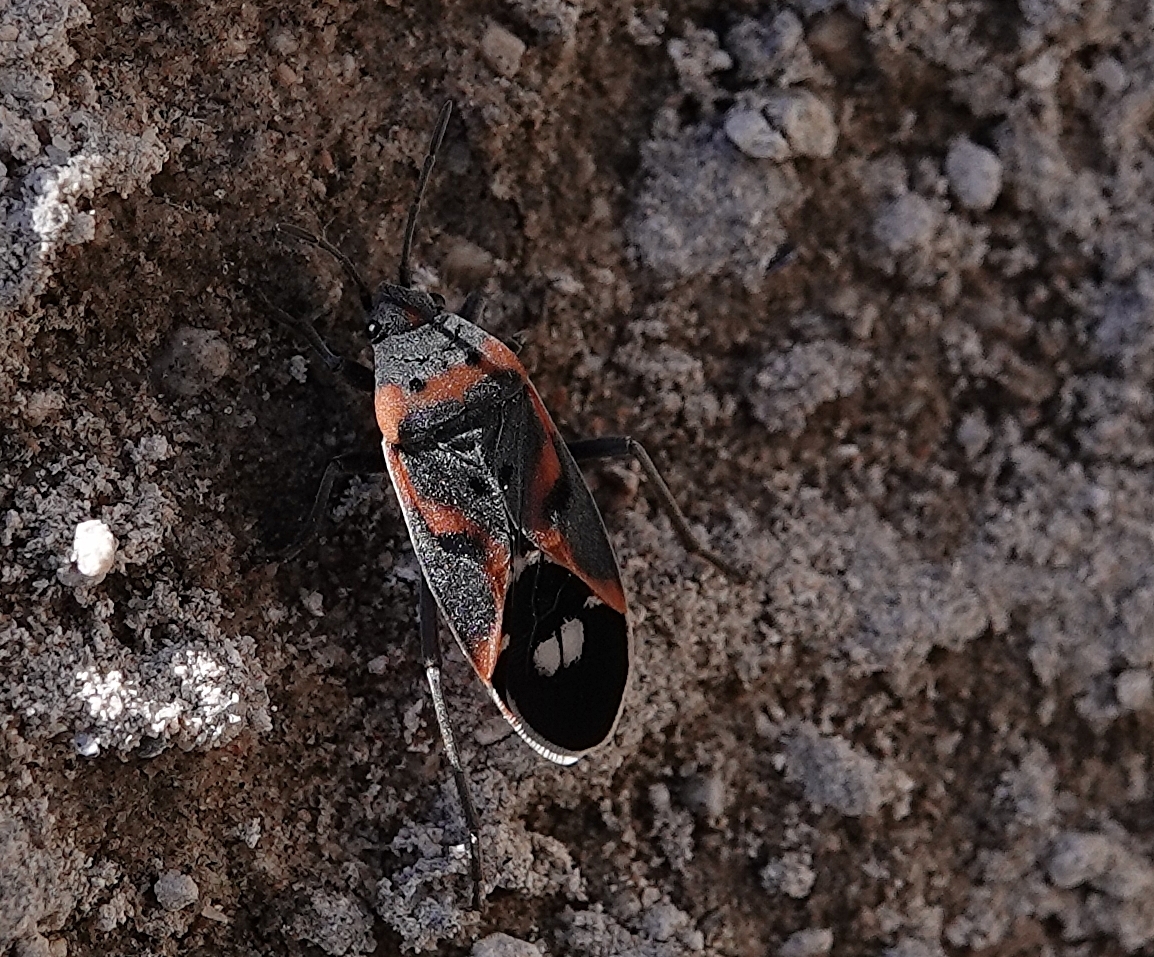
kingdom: Animalia
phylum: Arthropoda
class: Insecta
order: Hemiptera
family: Lygaeidae
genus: Lygaeus
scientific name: Lygaeus kalmii
